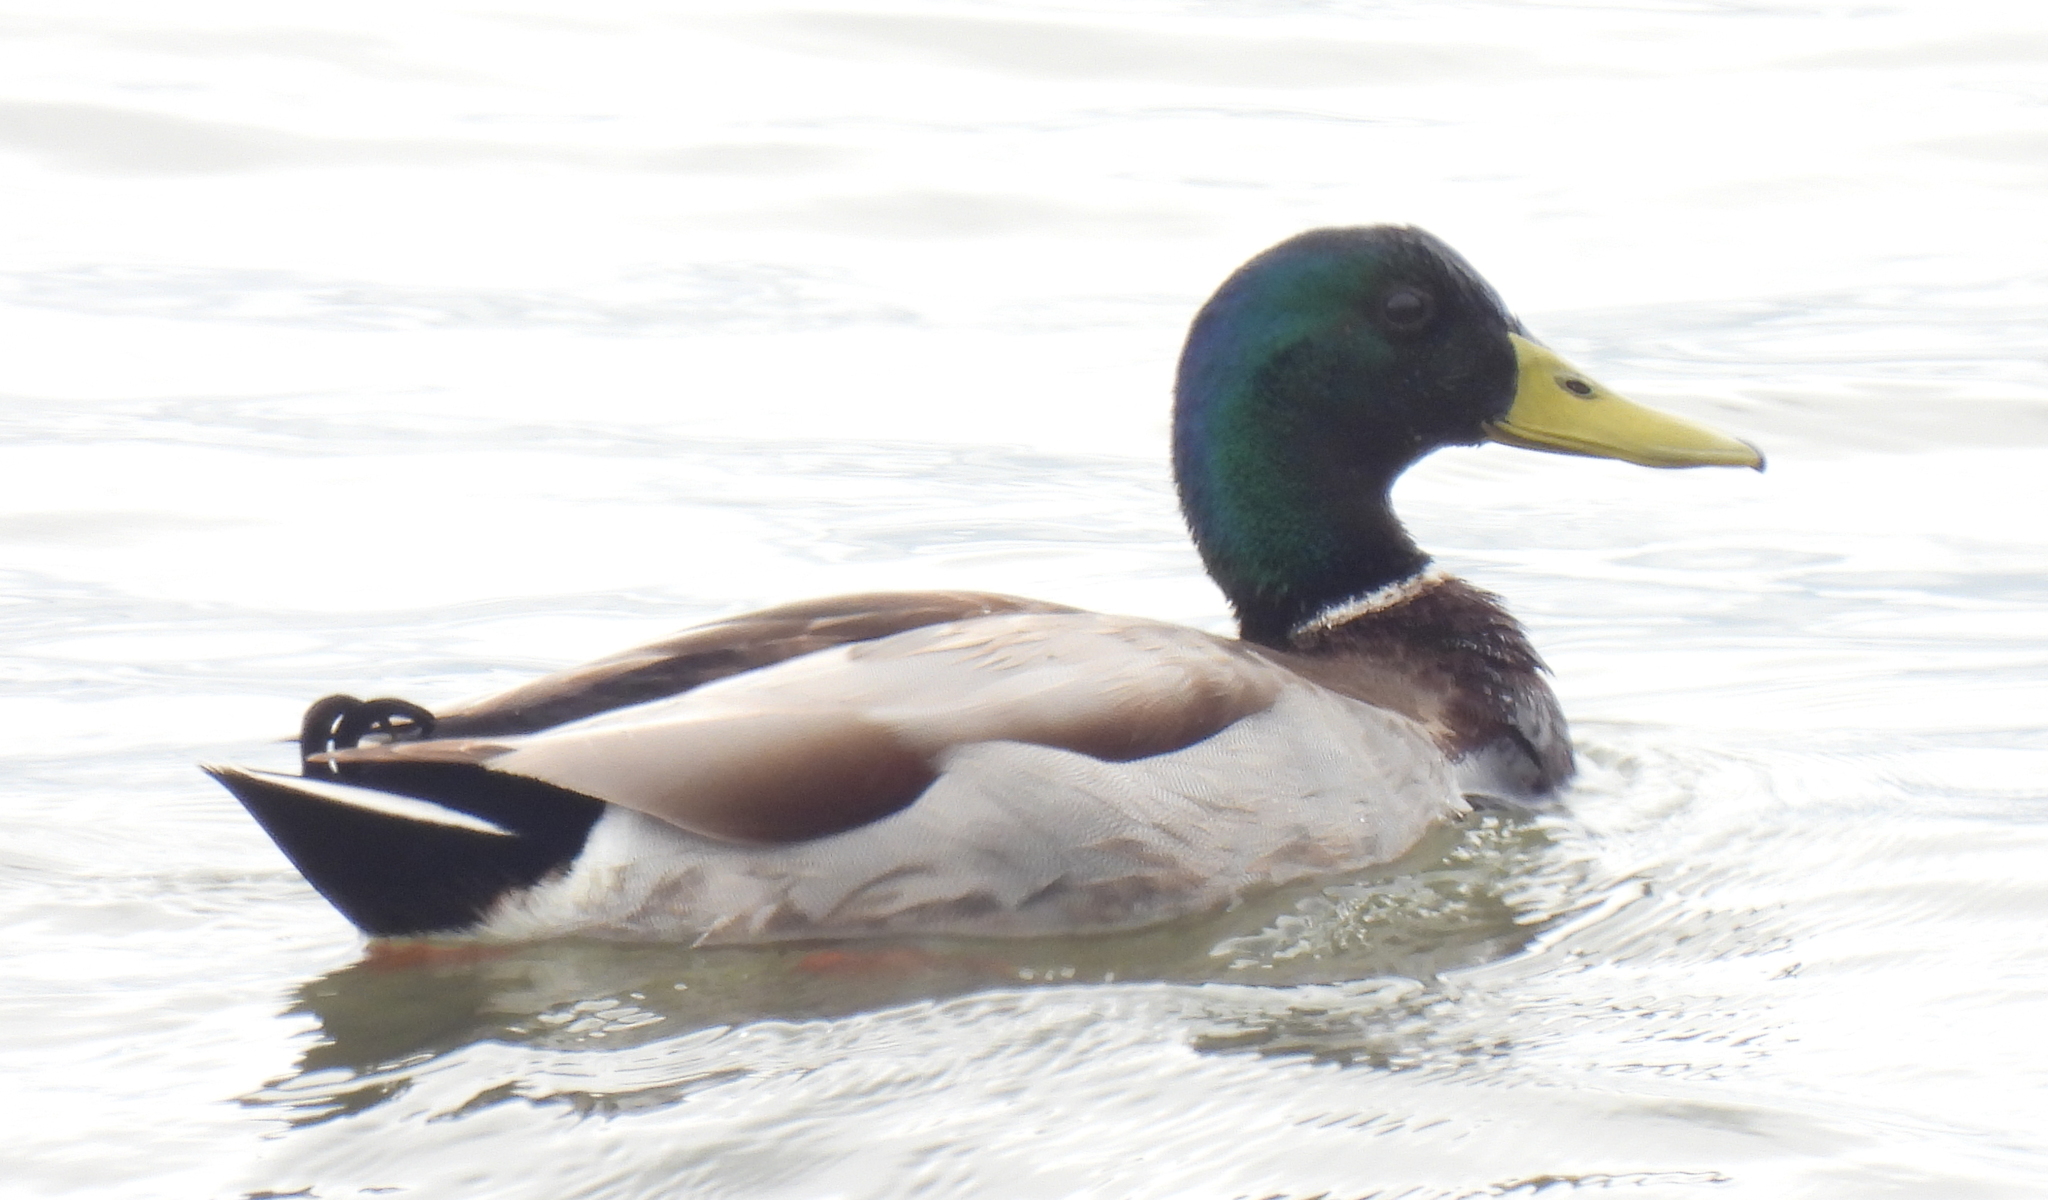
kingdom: Animalia
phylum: Chordata
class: Aves
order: Anseriformes
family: Anatidae
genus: Anas
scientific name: Anas platyrhynchos
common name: Mallard
